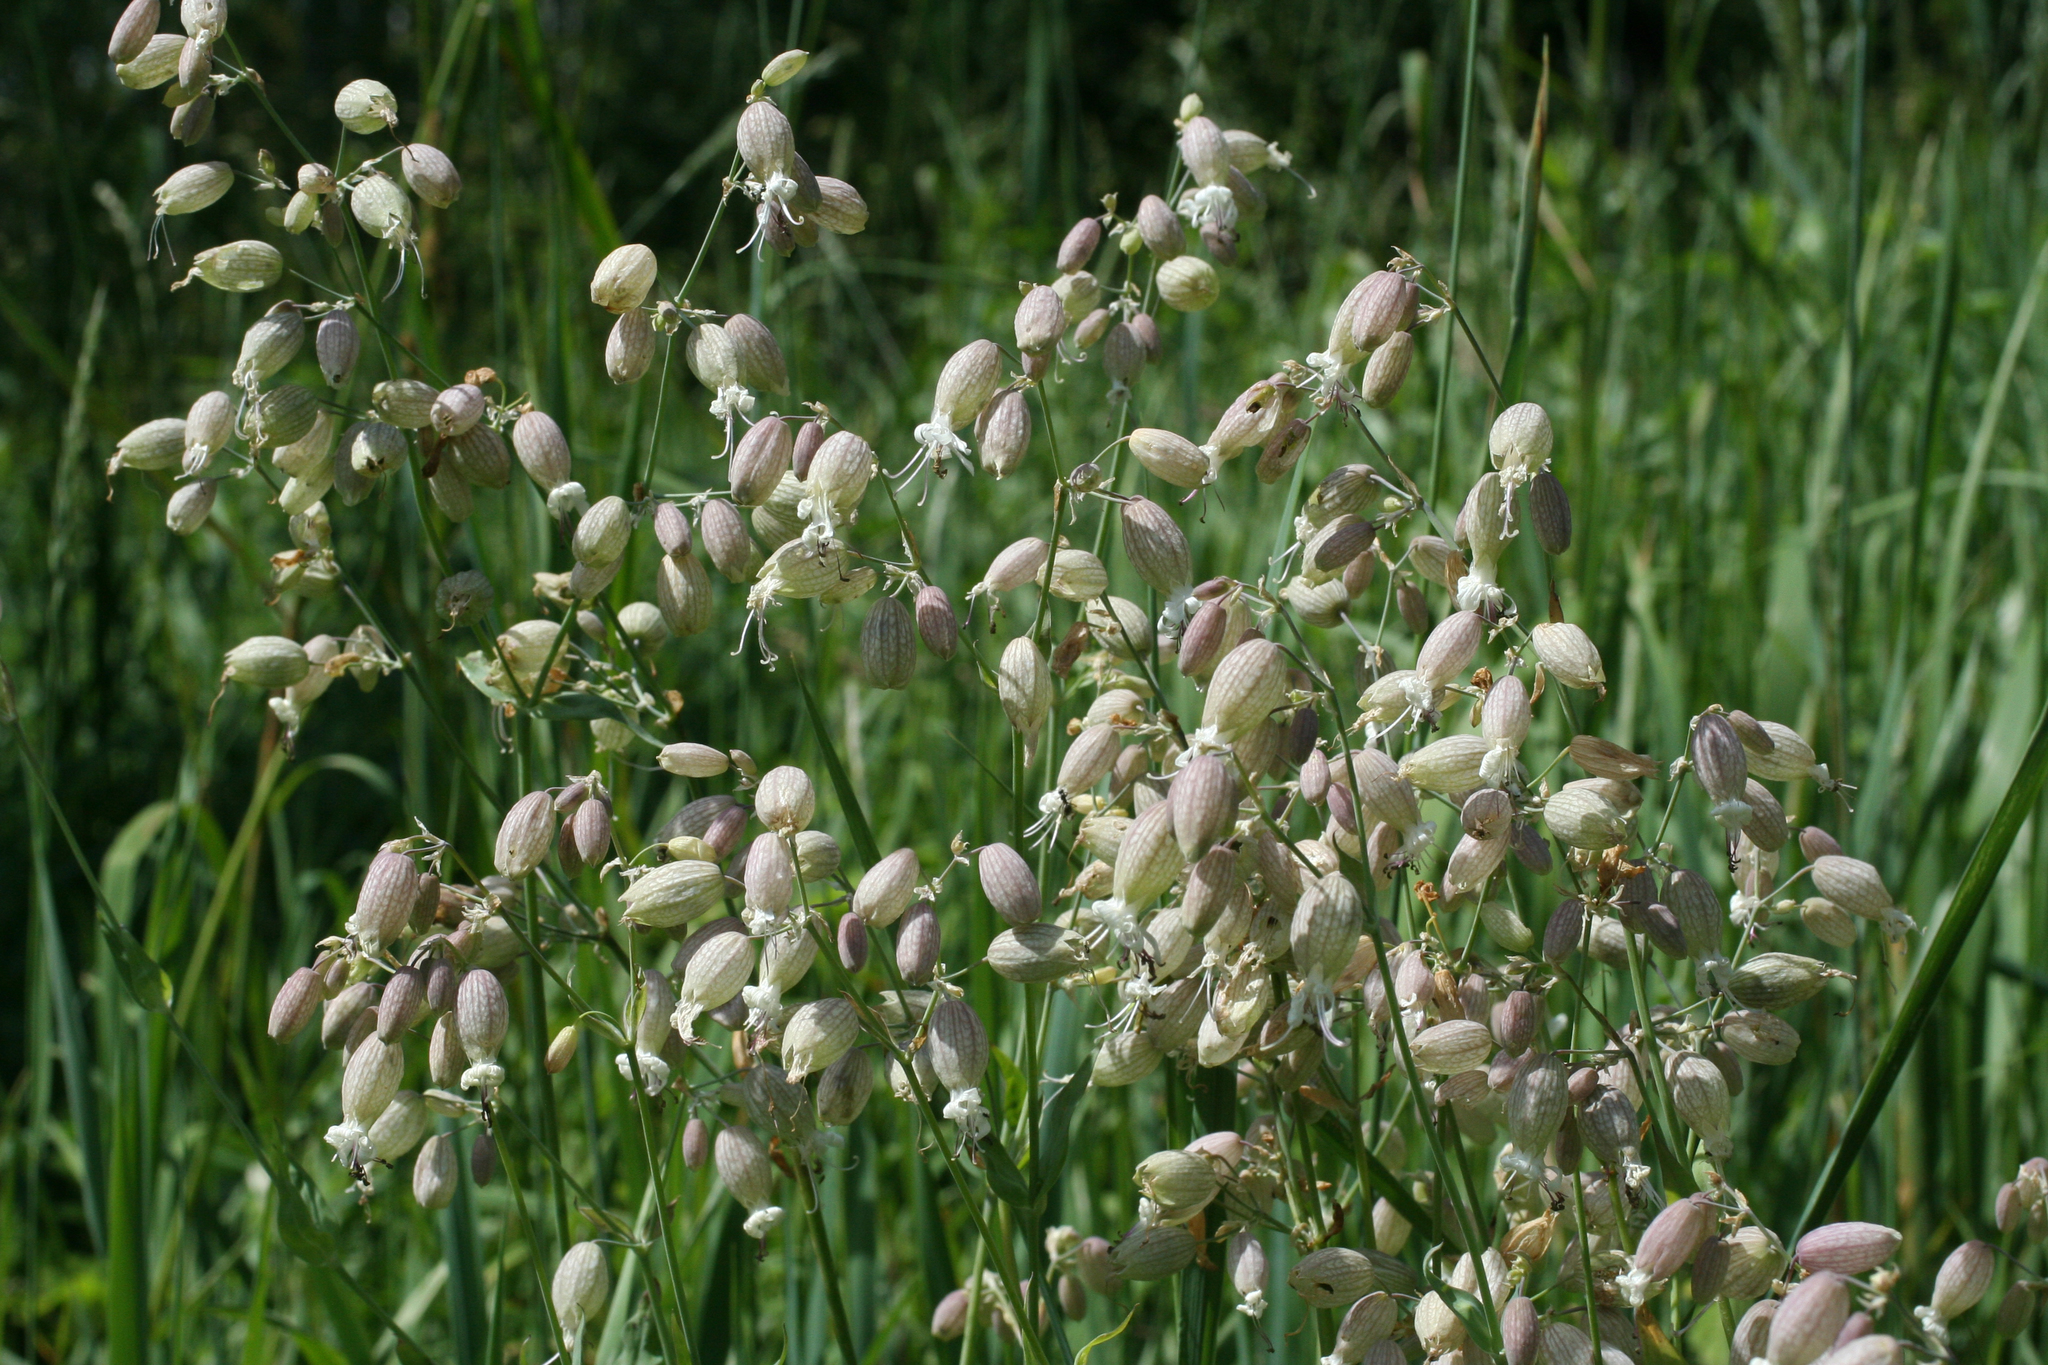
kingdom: Plantae
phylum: Tracheophyta
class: Magnoliopsida
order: Caryophyllales
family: Caryophyllaceae
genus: Silene
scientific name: Silene vulgaris
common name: Bladder campion
